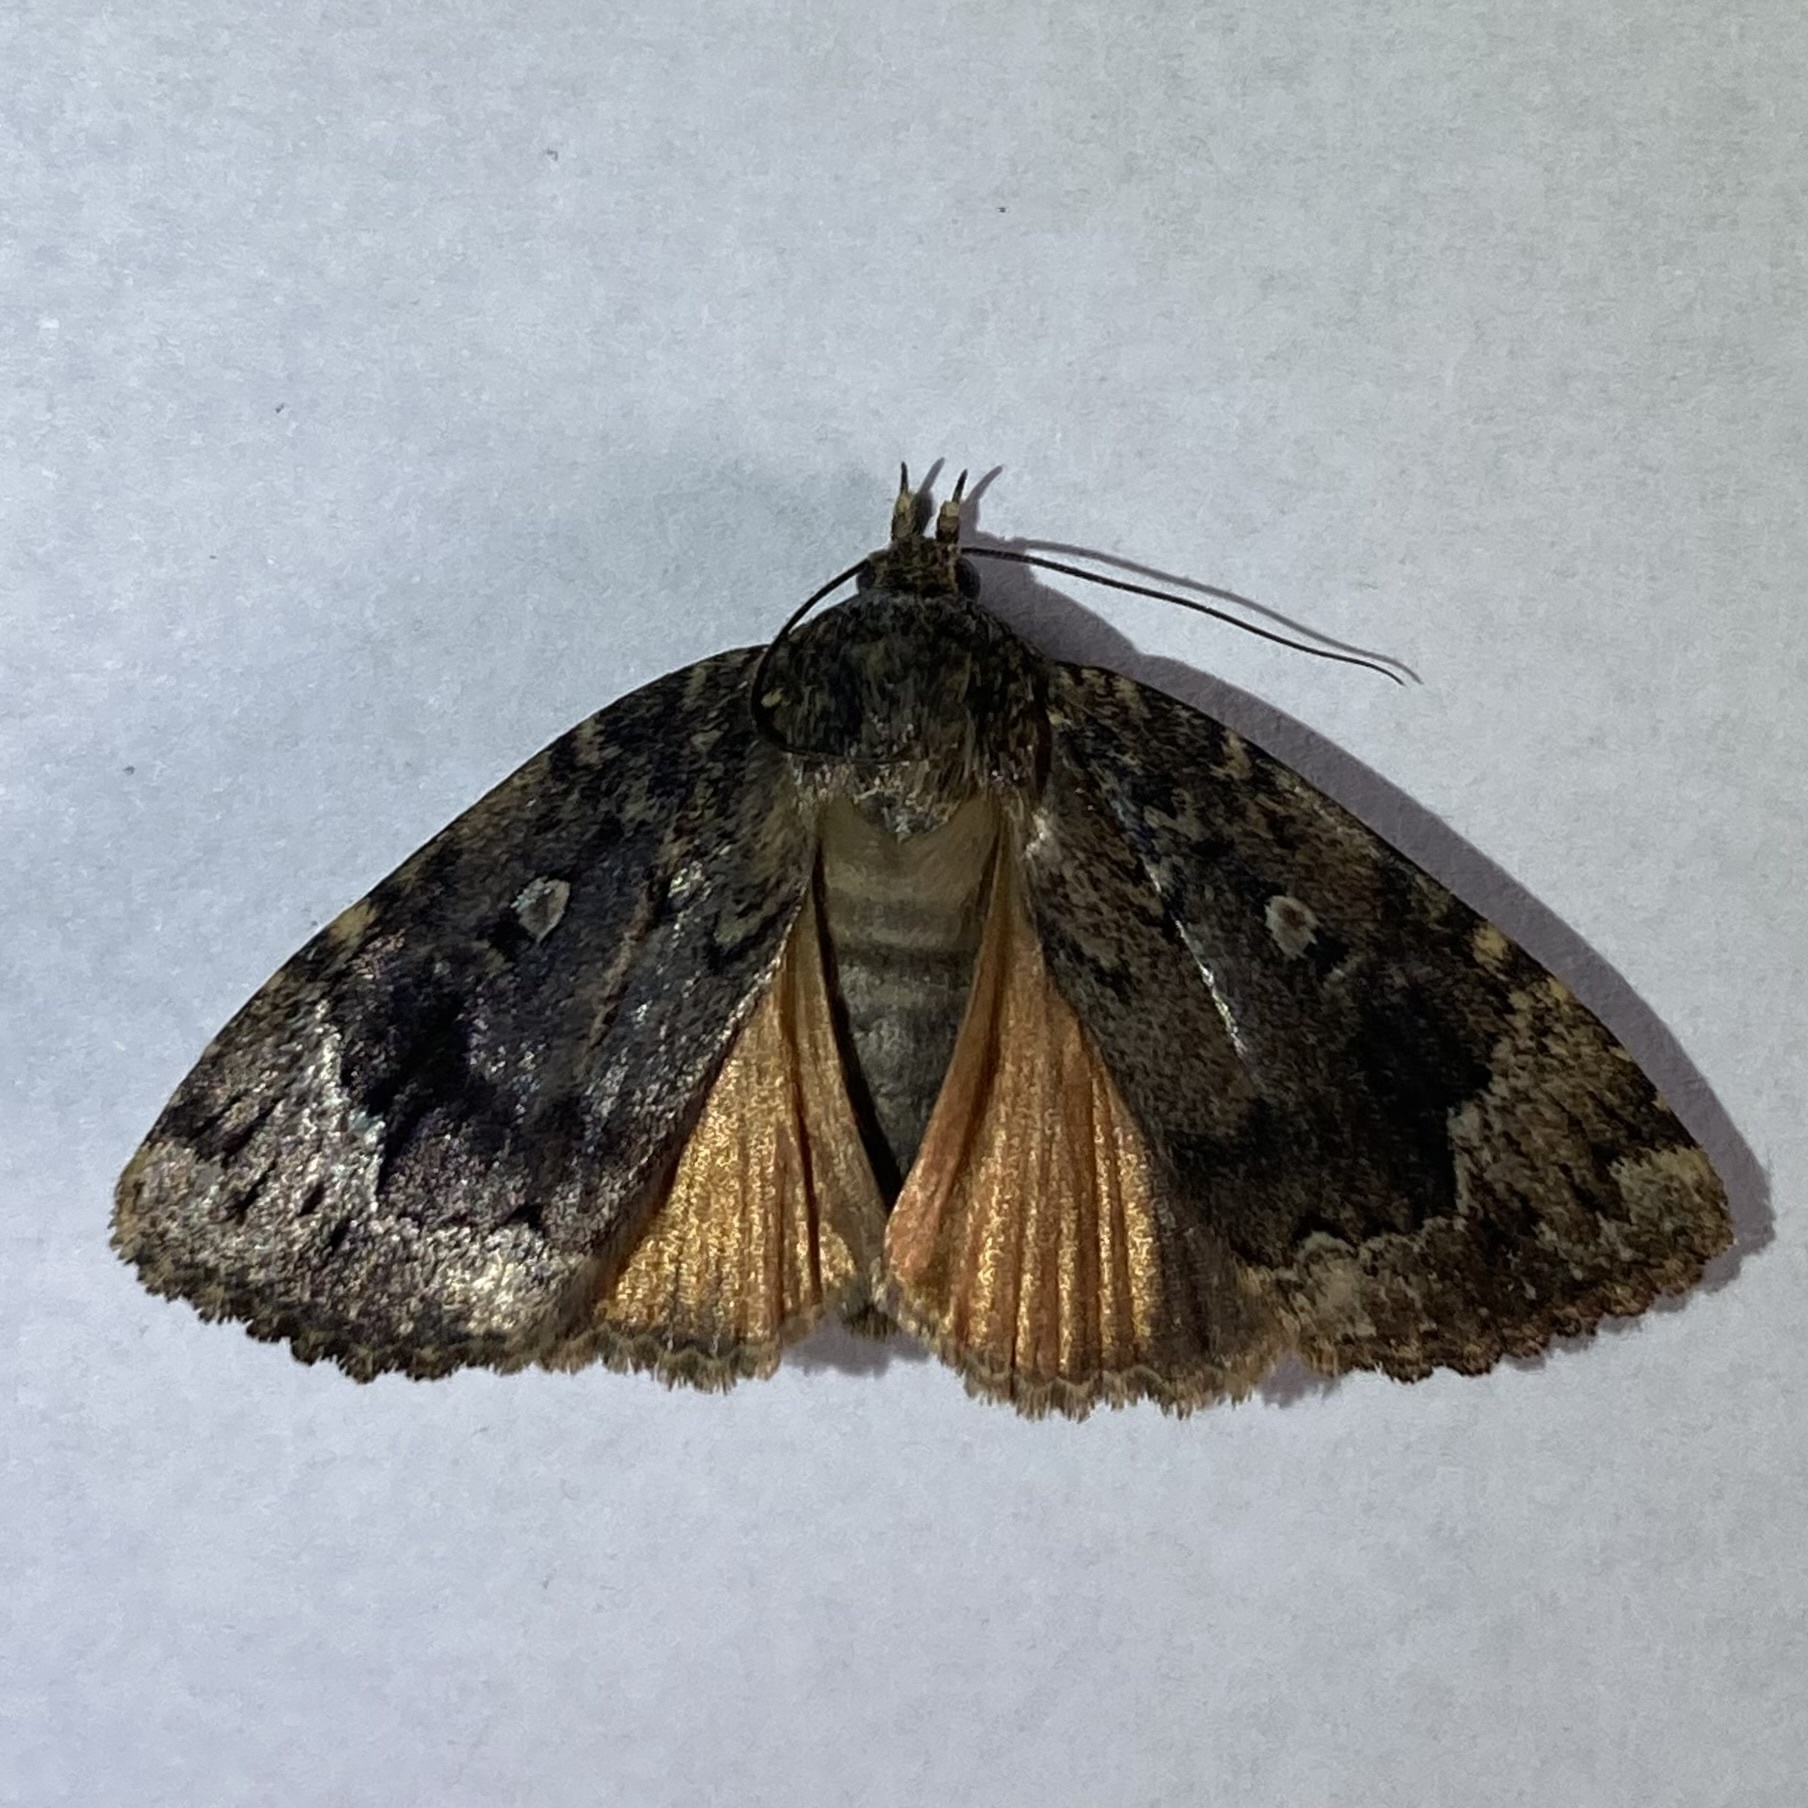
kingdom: Animalia
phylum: Arthropoda
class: Insecta
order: Lepidoptera
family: Noctuidae
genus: Amphipyra
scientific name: Amphipyra pyramidoides
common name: American copper underwing
